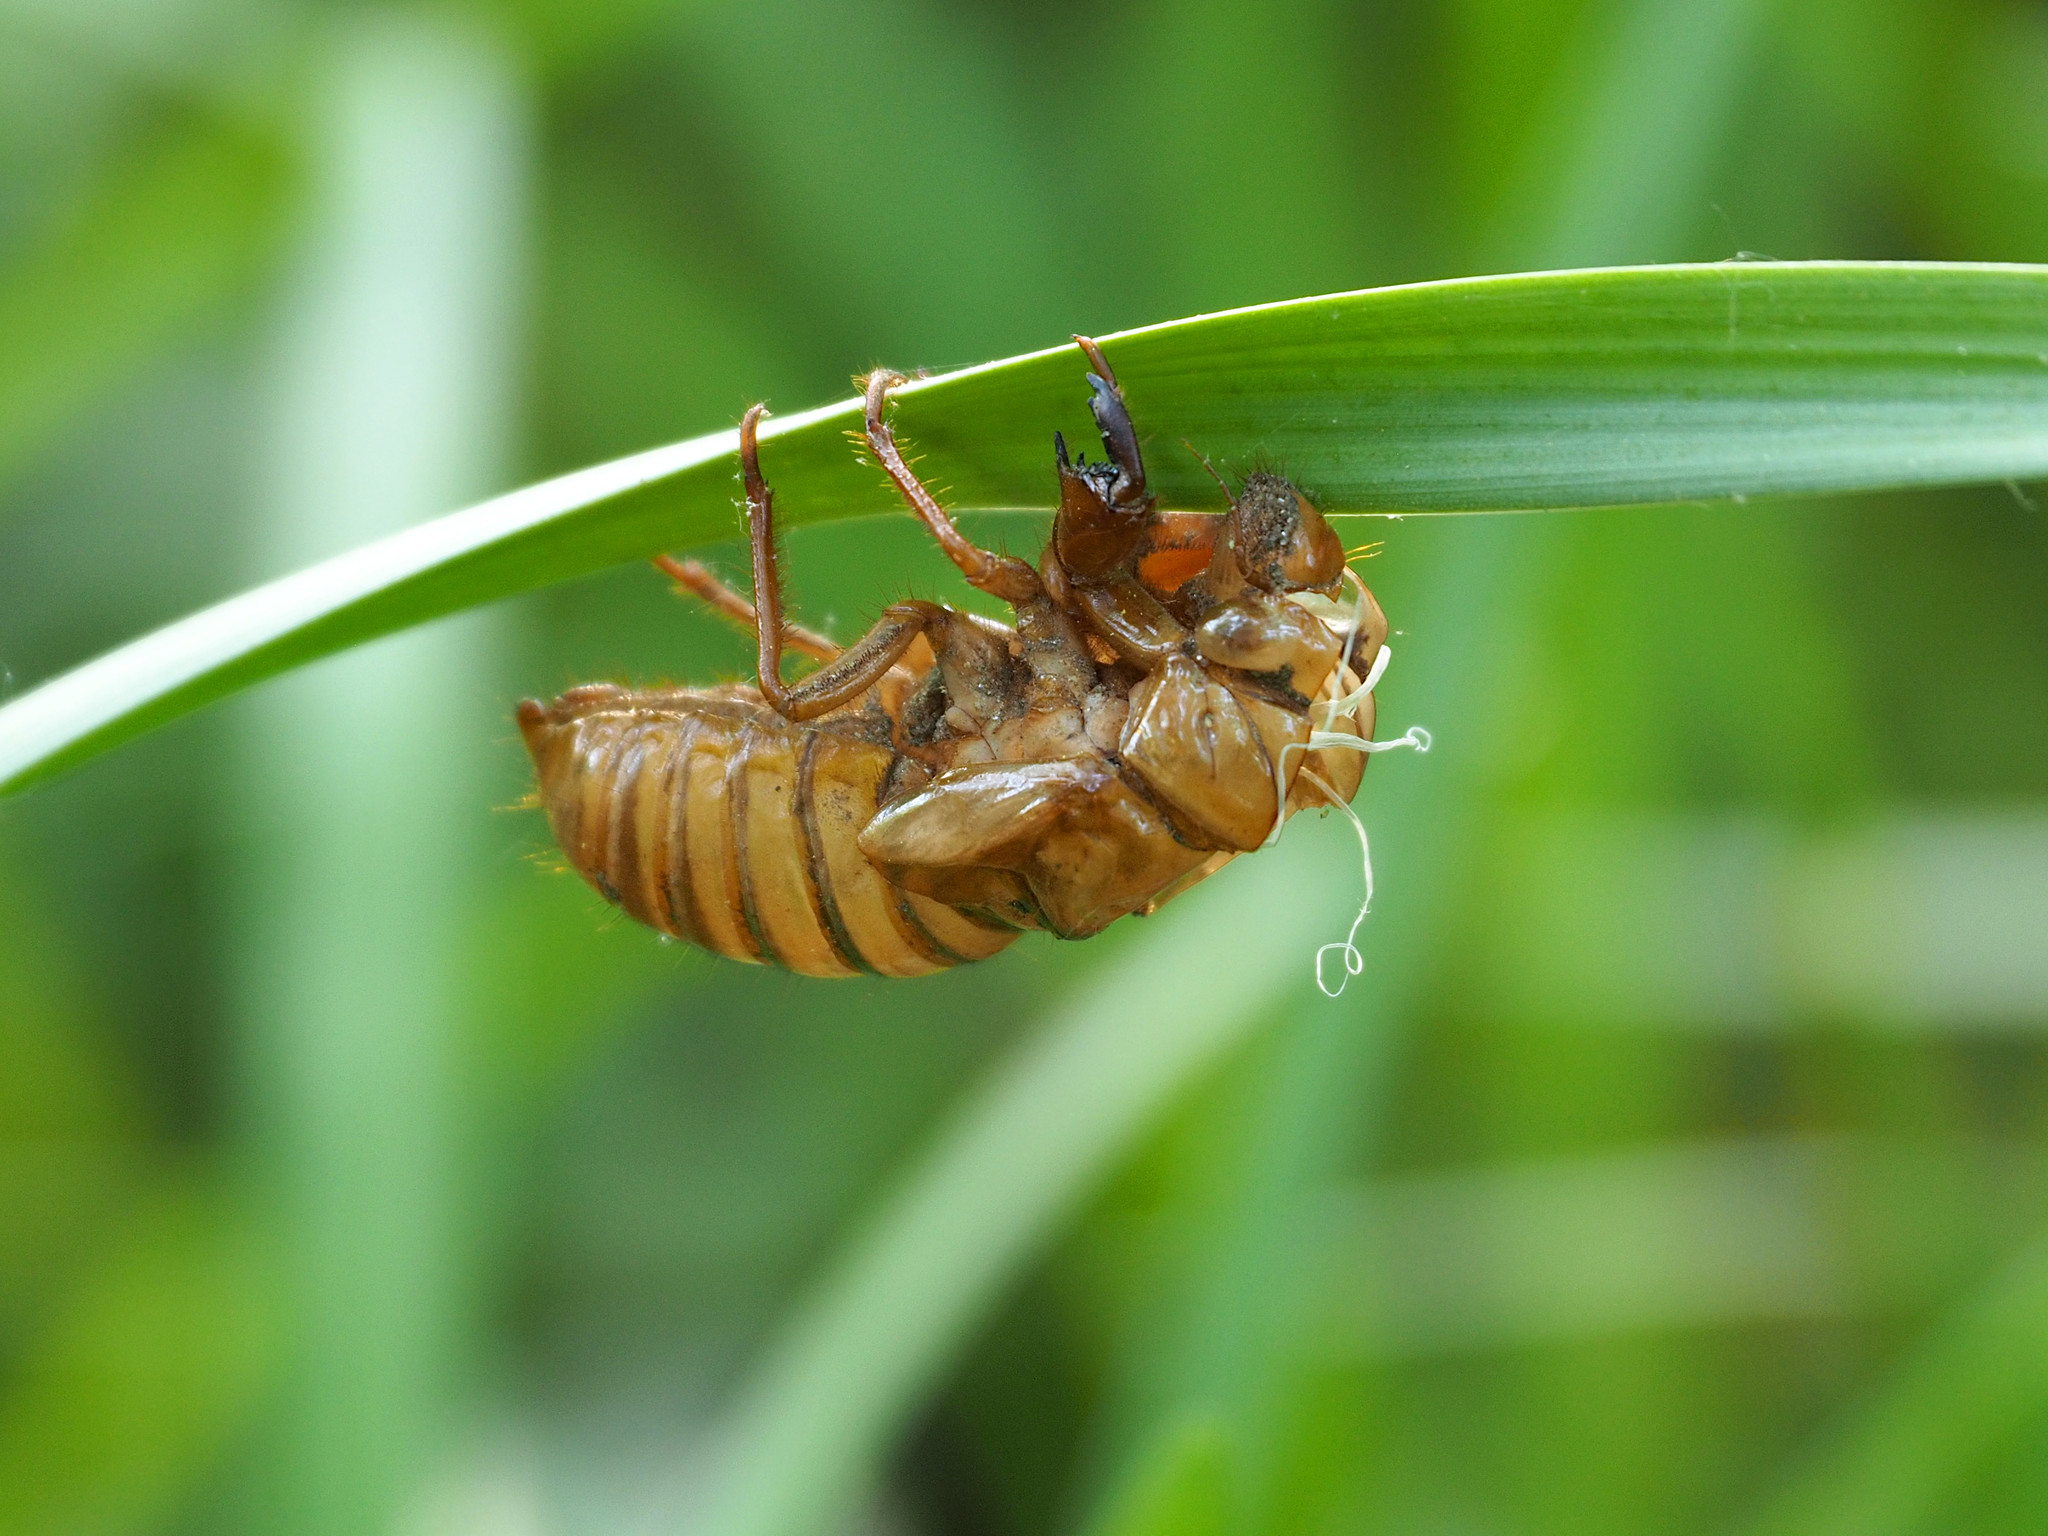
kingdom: Animalia
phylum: Arthropoda
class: Insecta
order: Hemiptera
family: Cicadidae
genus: Magicicada
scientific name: Magicicada
